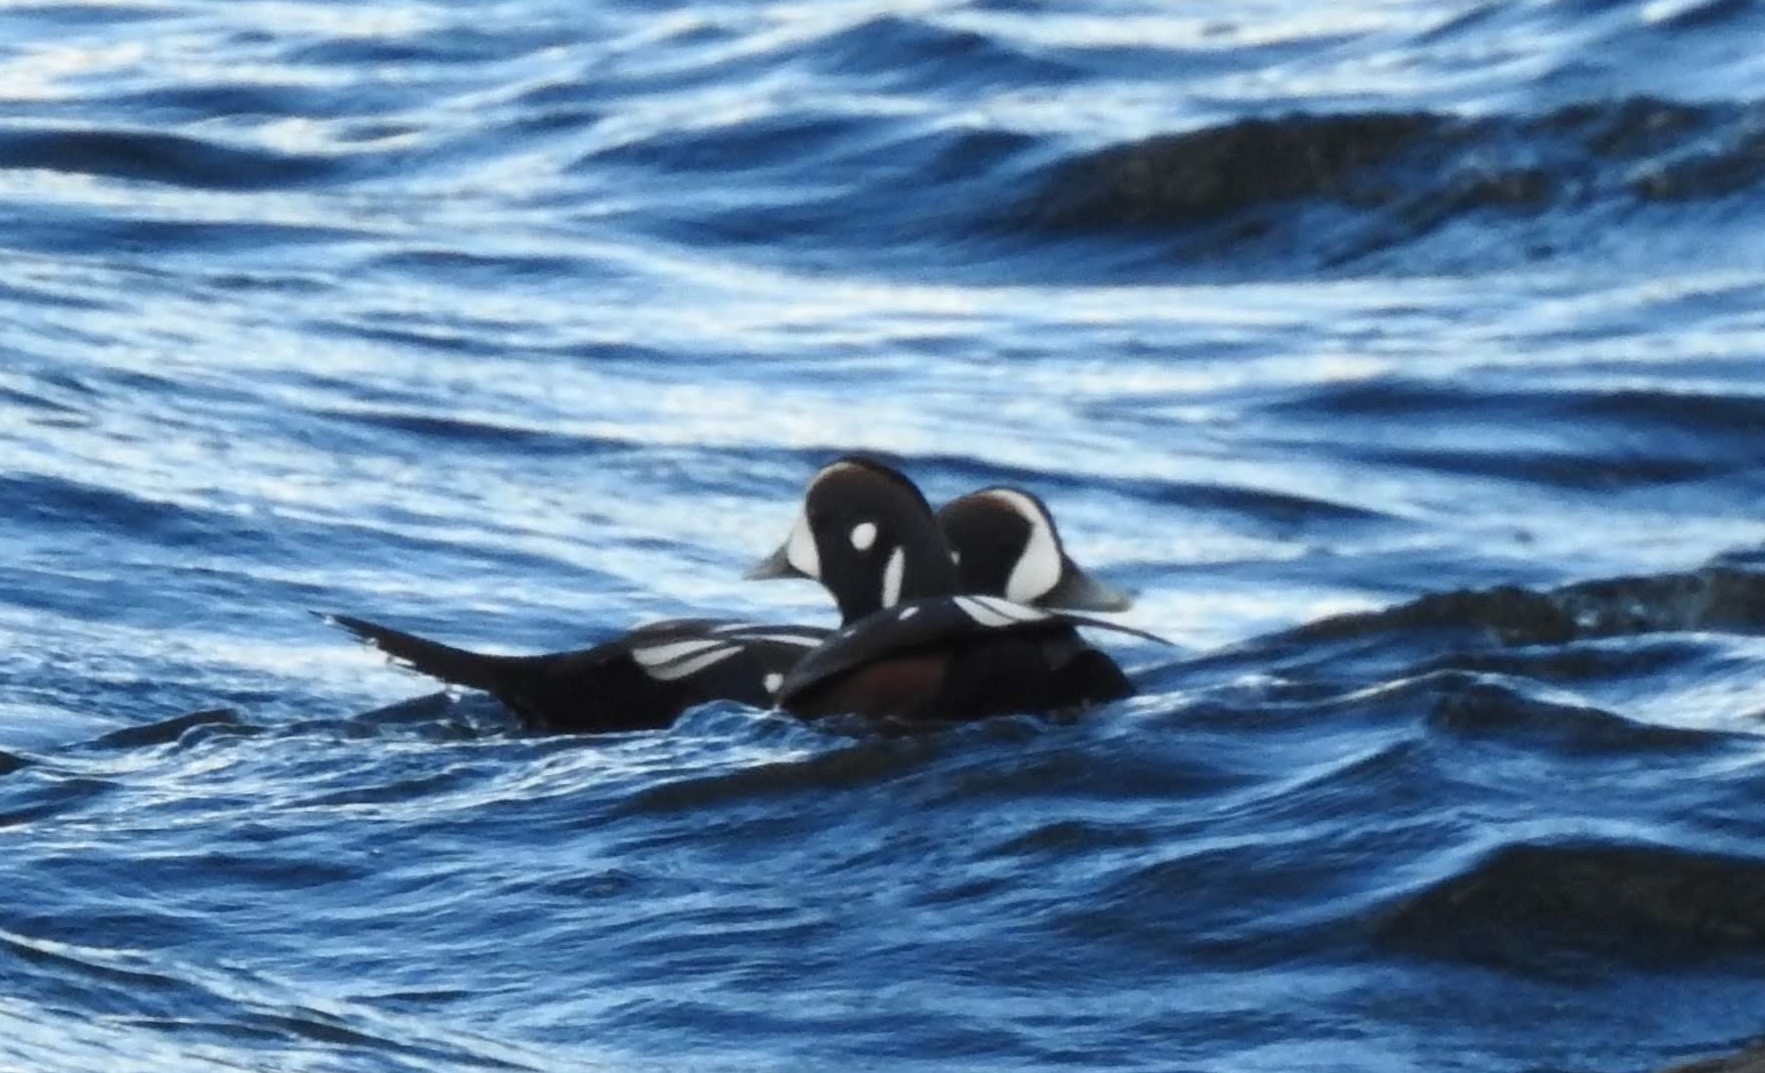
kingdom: Animalia
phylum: Chordata
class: Aves
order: Anseriformes
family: Anatidae
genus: Histrionicus
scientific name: Histrionicus histrionicus
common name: Harlequin duck
